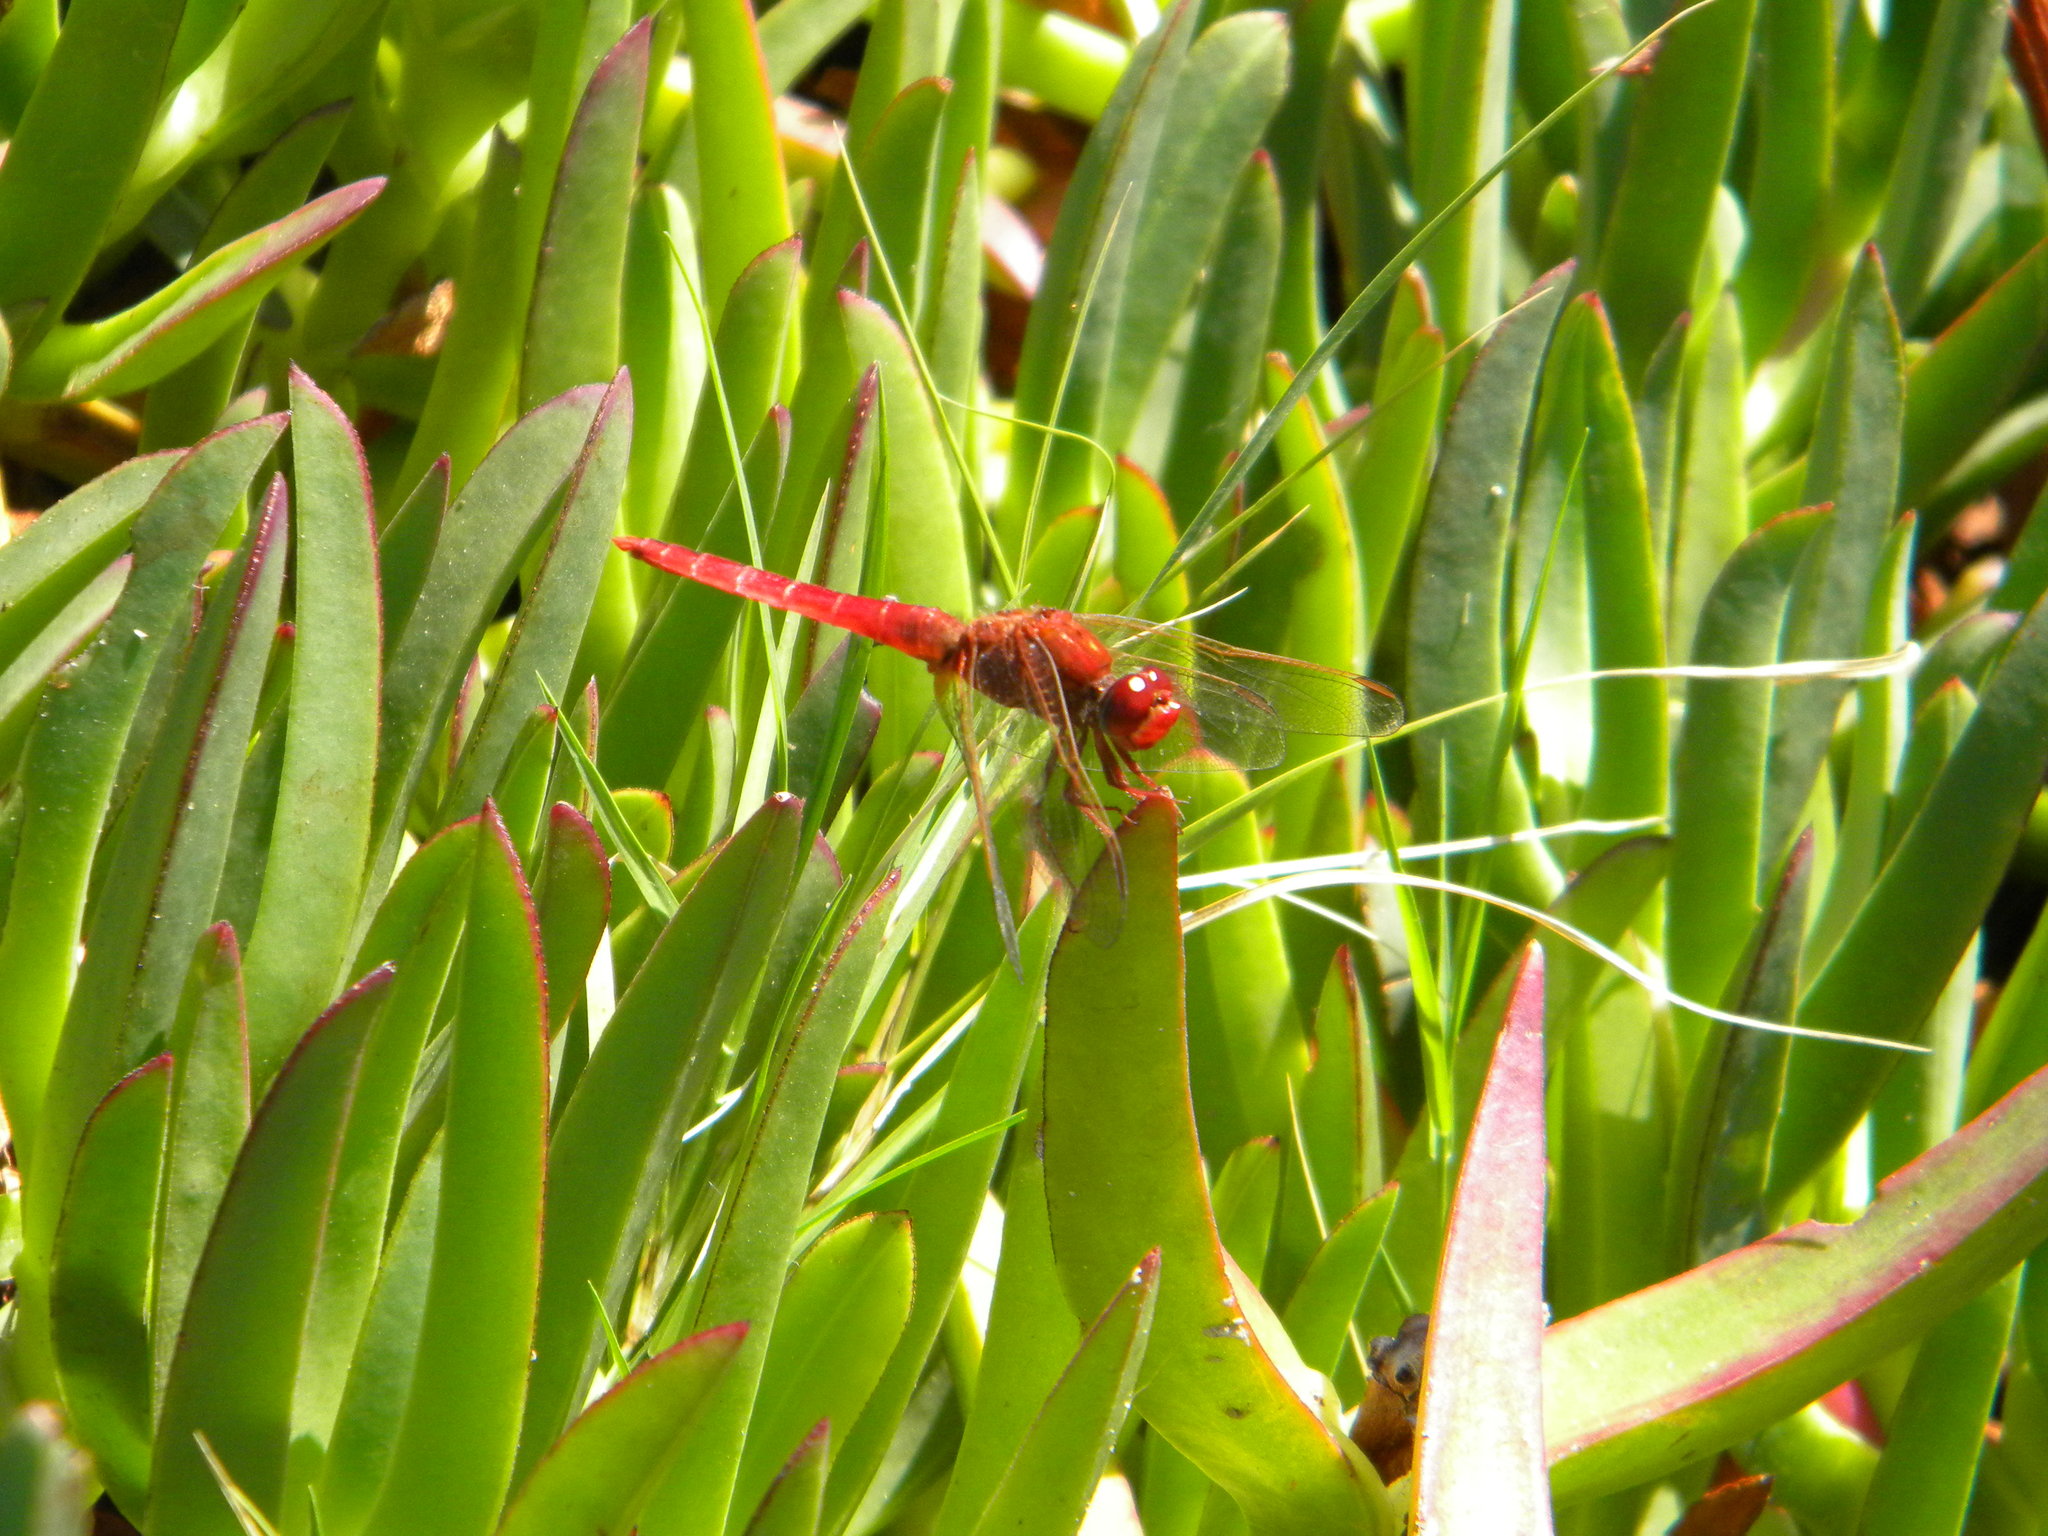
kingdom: Animalia
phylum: Arthropoda
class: Insecta
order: Odonata
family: Libellulidae
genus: Crocothemis
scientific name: Crocothemis erythraea
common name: Scarlet dragonfly
